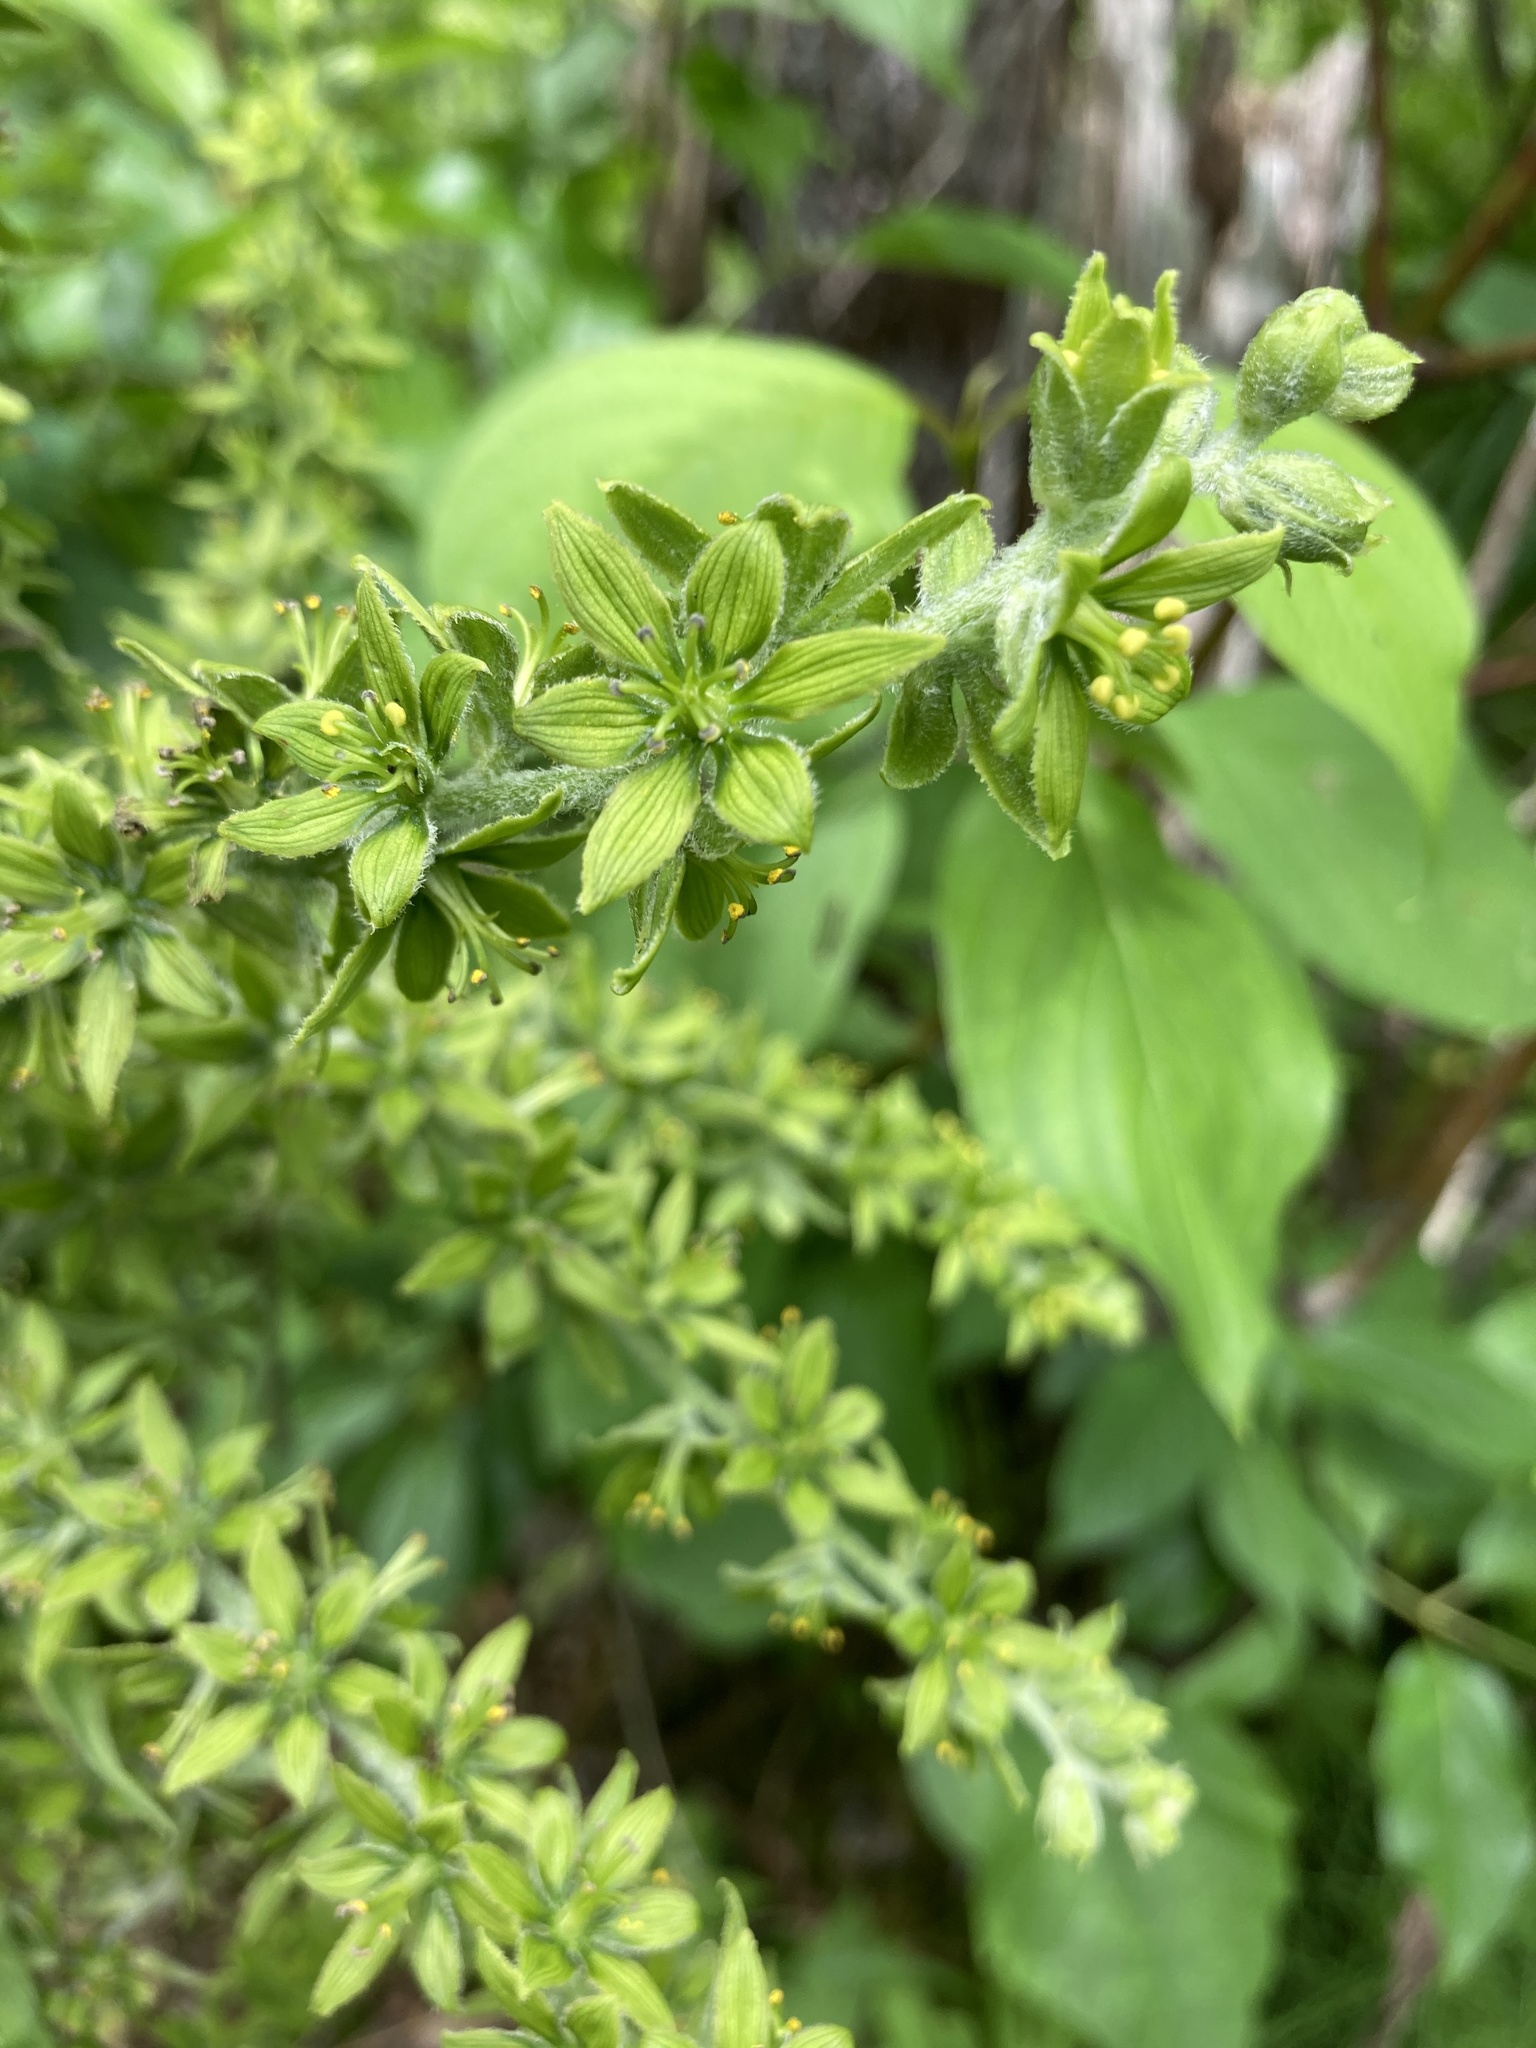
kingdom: Plantae
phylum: Tracheophyta
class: Liliopsida
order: Liliales
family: Melanthiaceae
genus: Veratrum
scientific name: Veratrum viride
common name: American false hellebore
